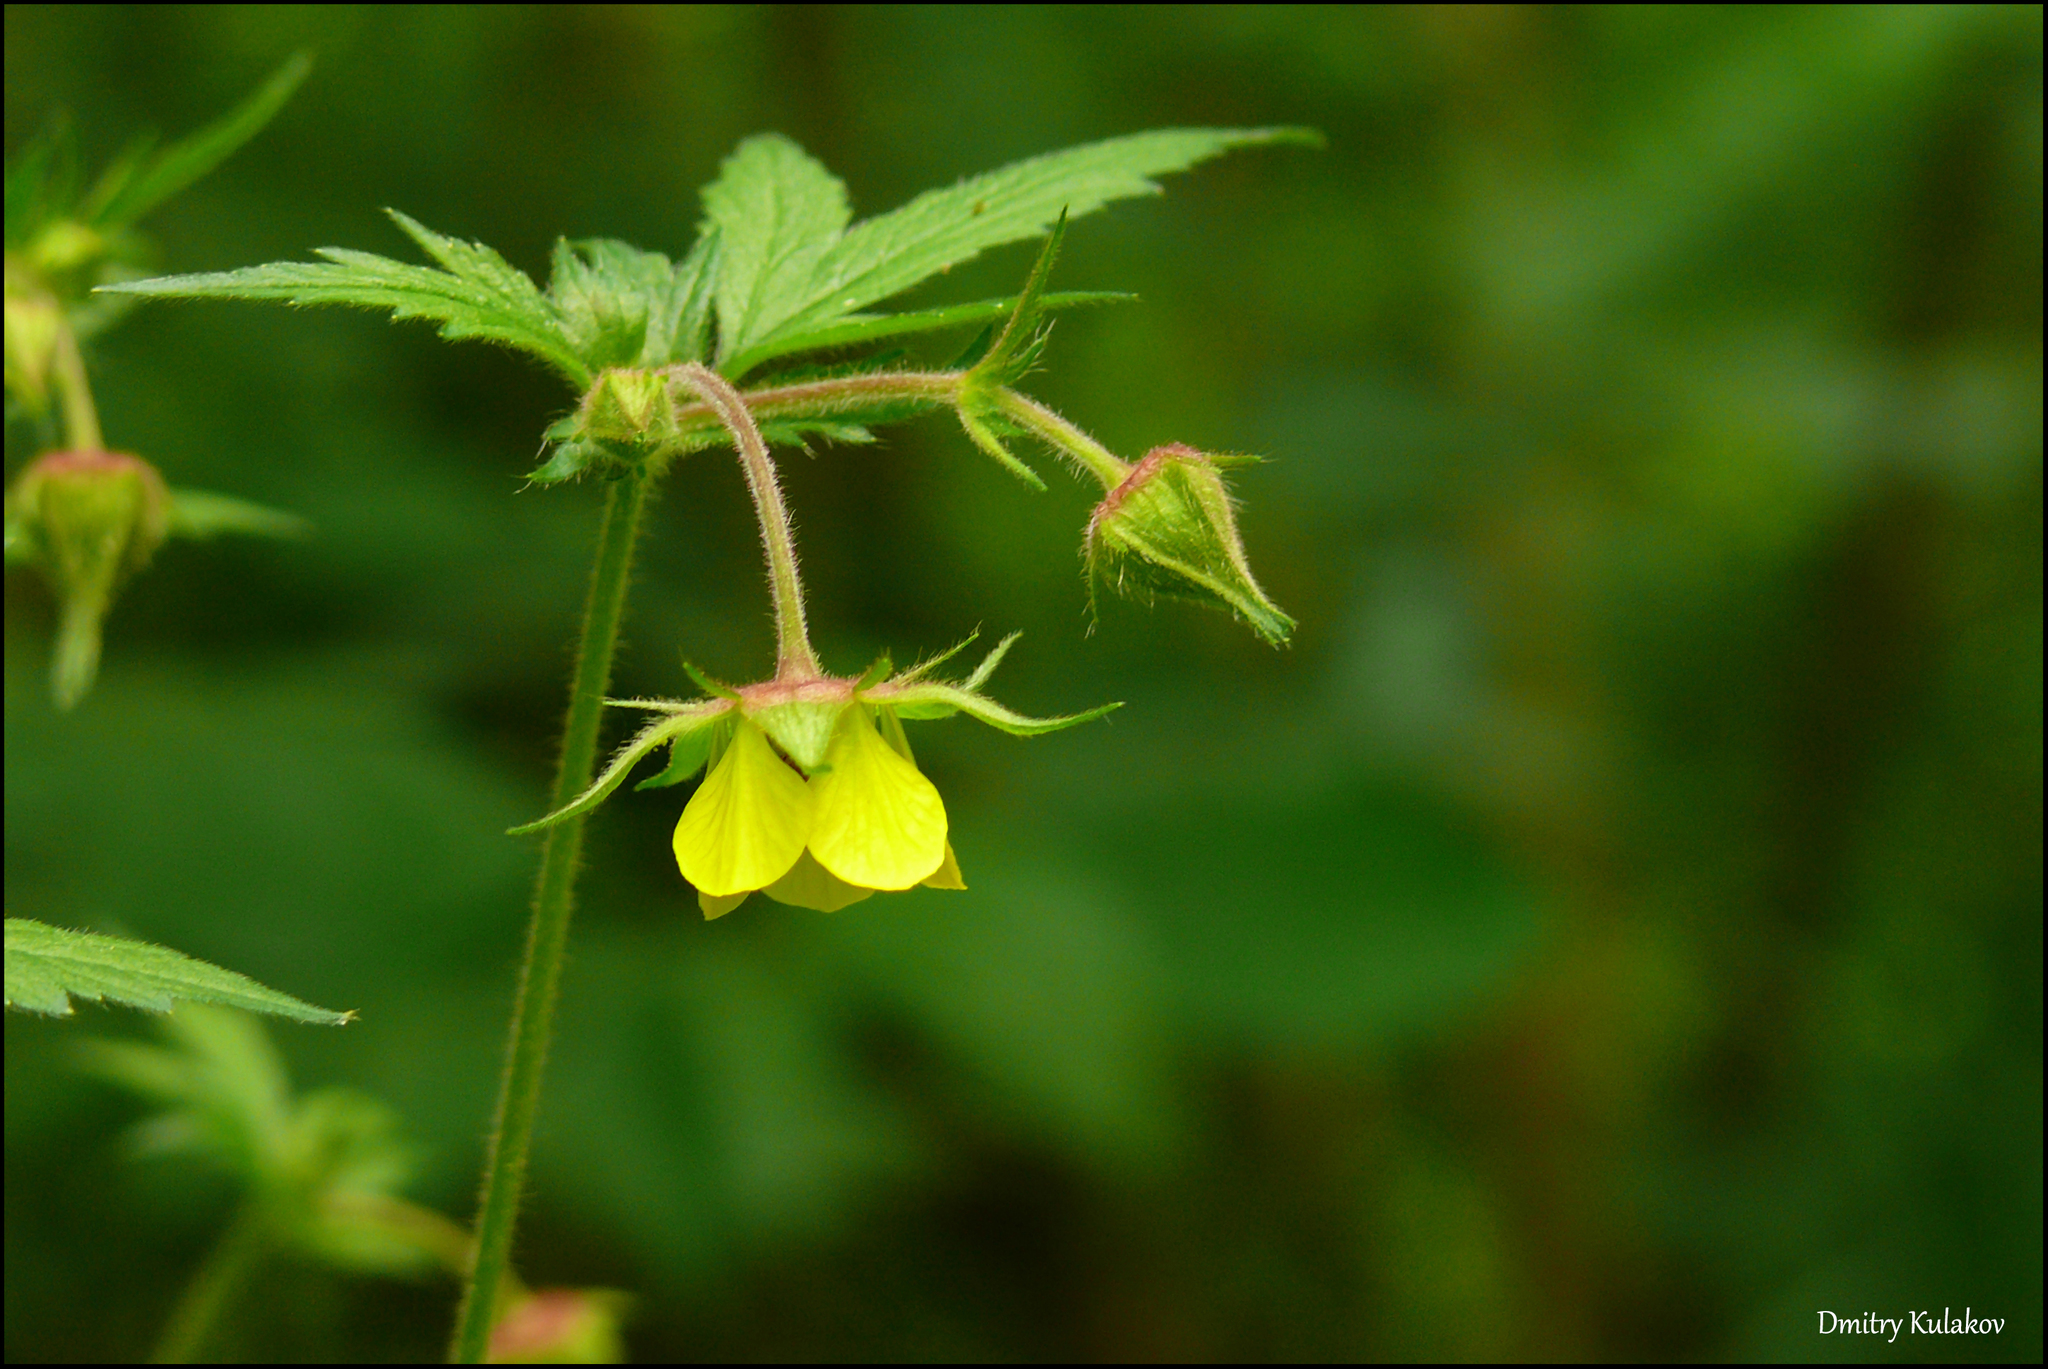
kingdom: Plantae
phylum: Tracheophyta
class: Magnoliopsida
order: Rosales
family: Rosaceae
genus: Geum
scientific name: Geum intermedium
